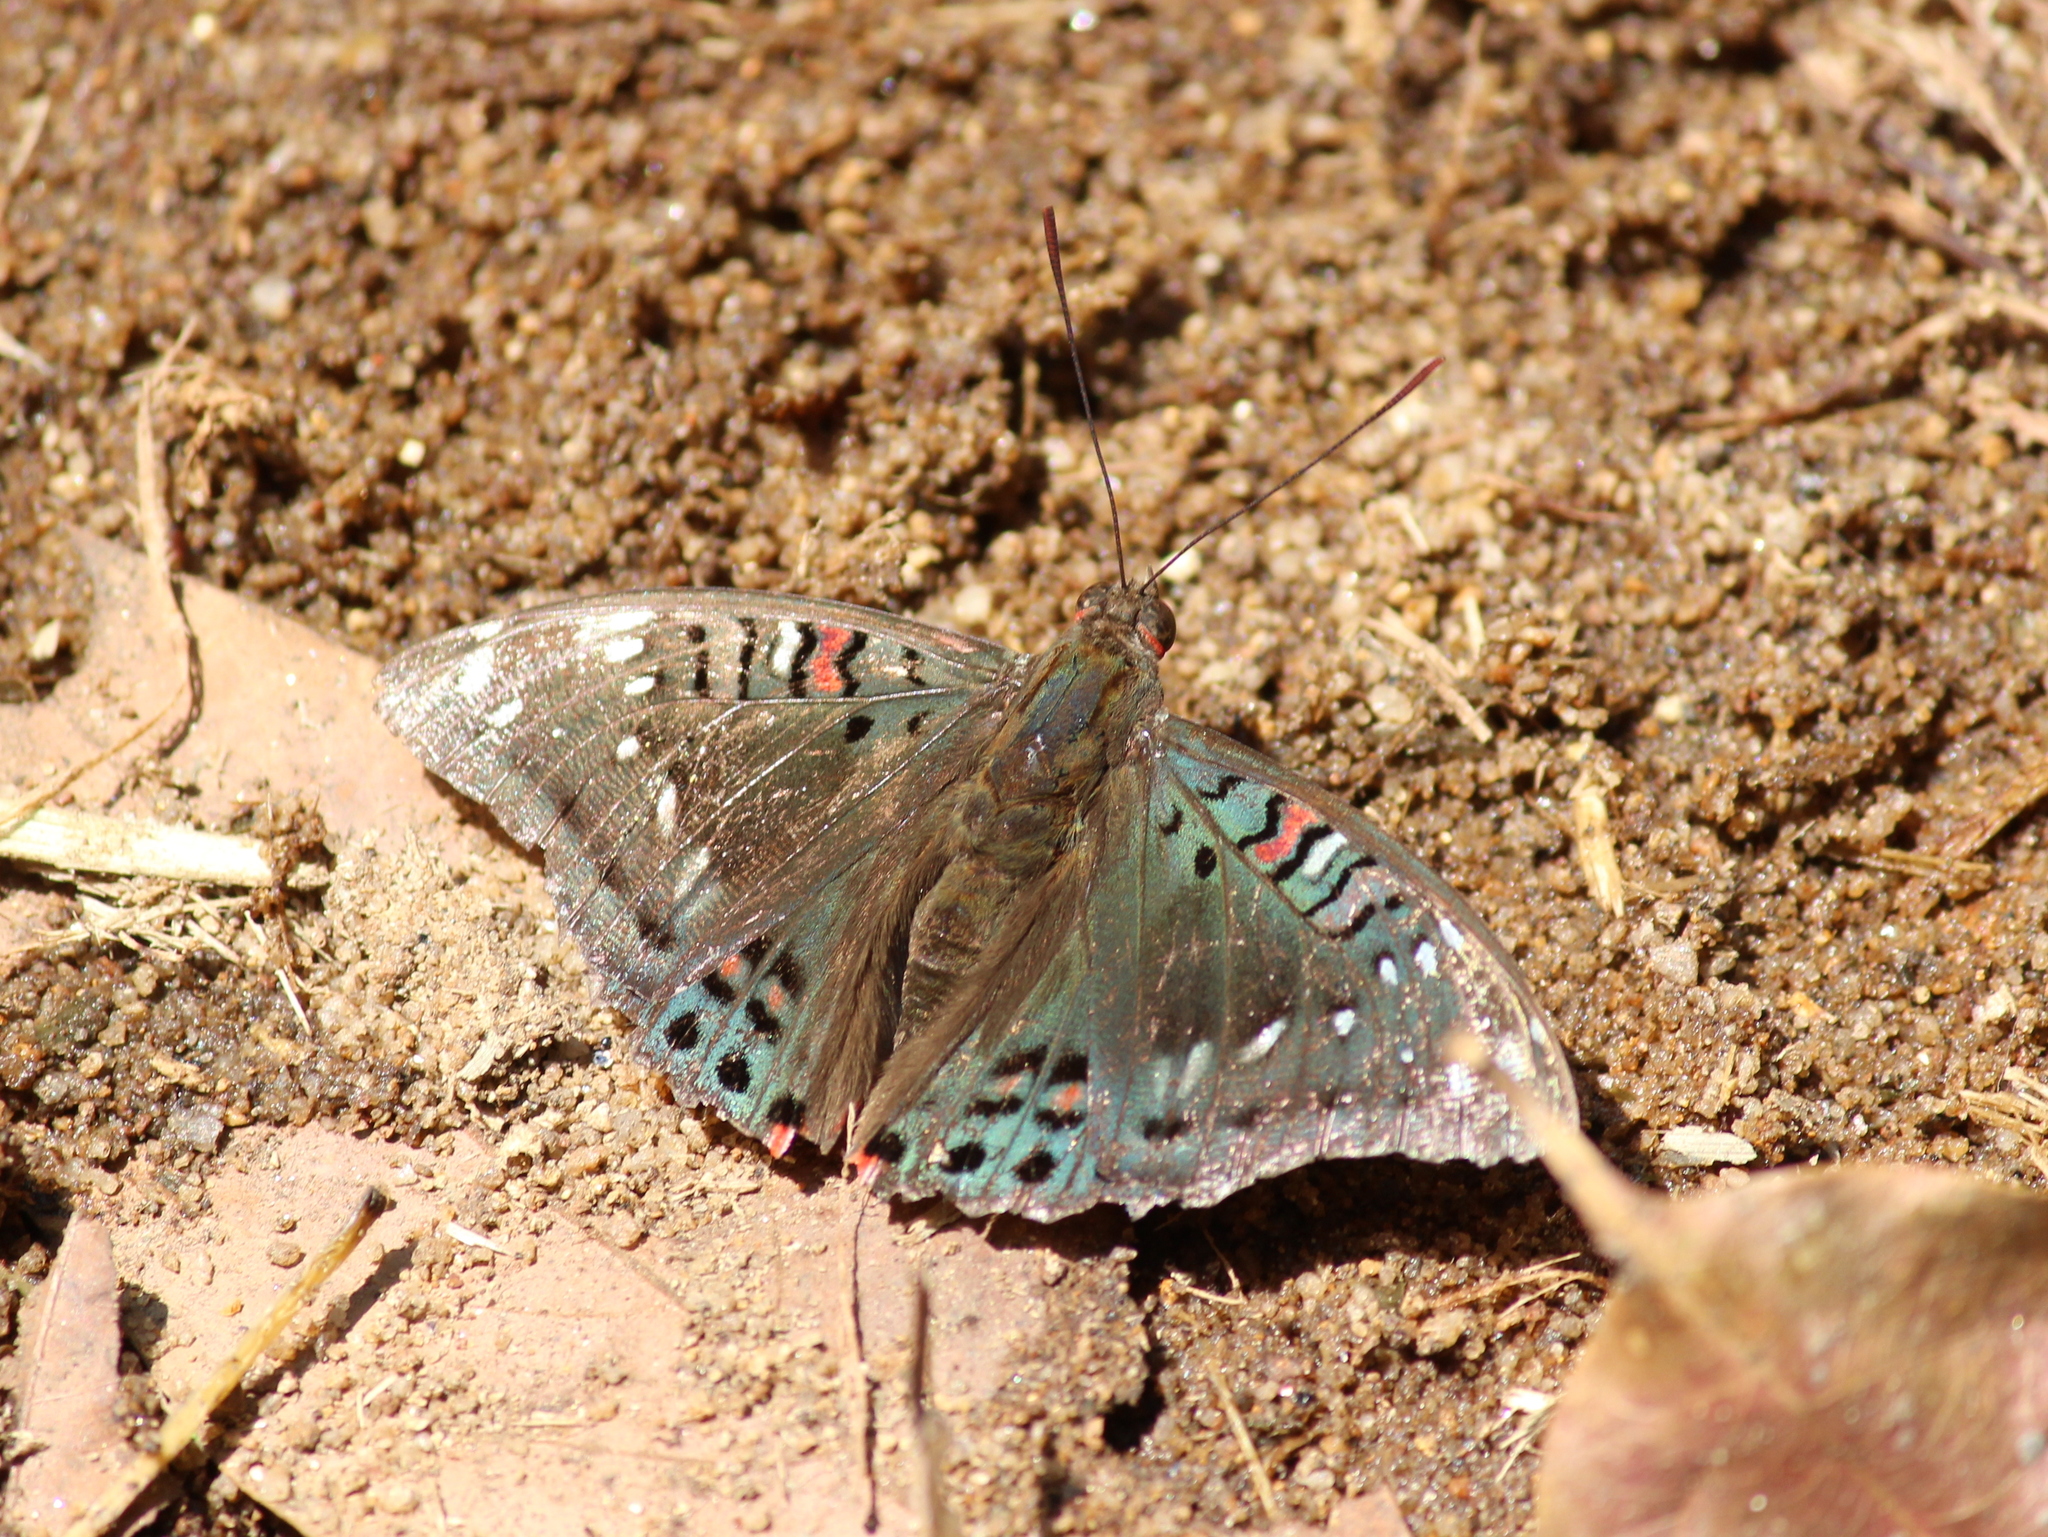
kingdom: Animalia
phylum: Arthropoda
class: Insecta
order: Lepidoptera
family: Nymphalidae
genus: Euthalia
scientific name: Euthalia lubentina
